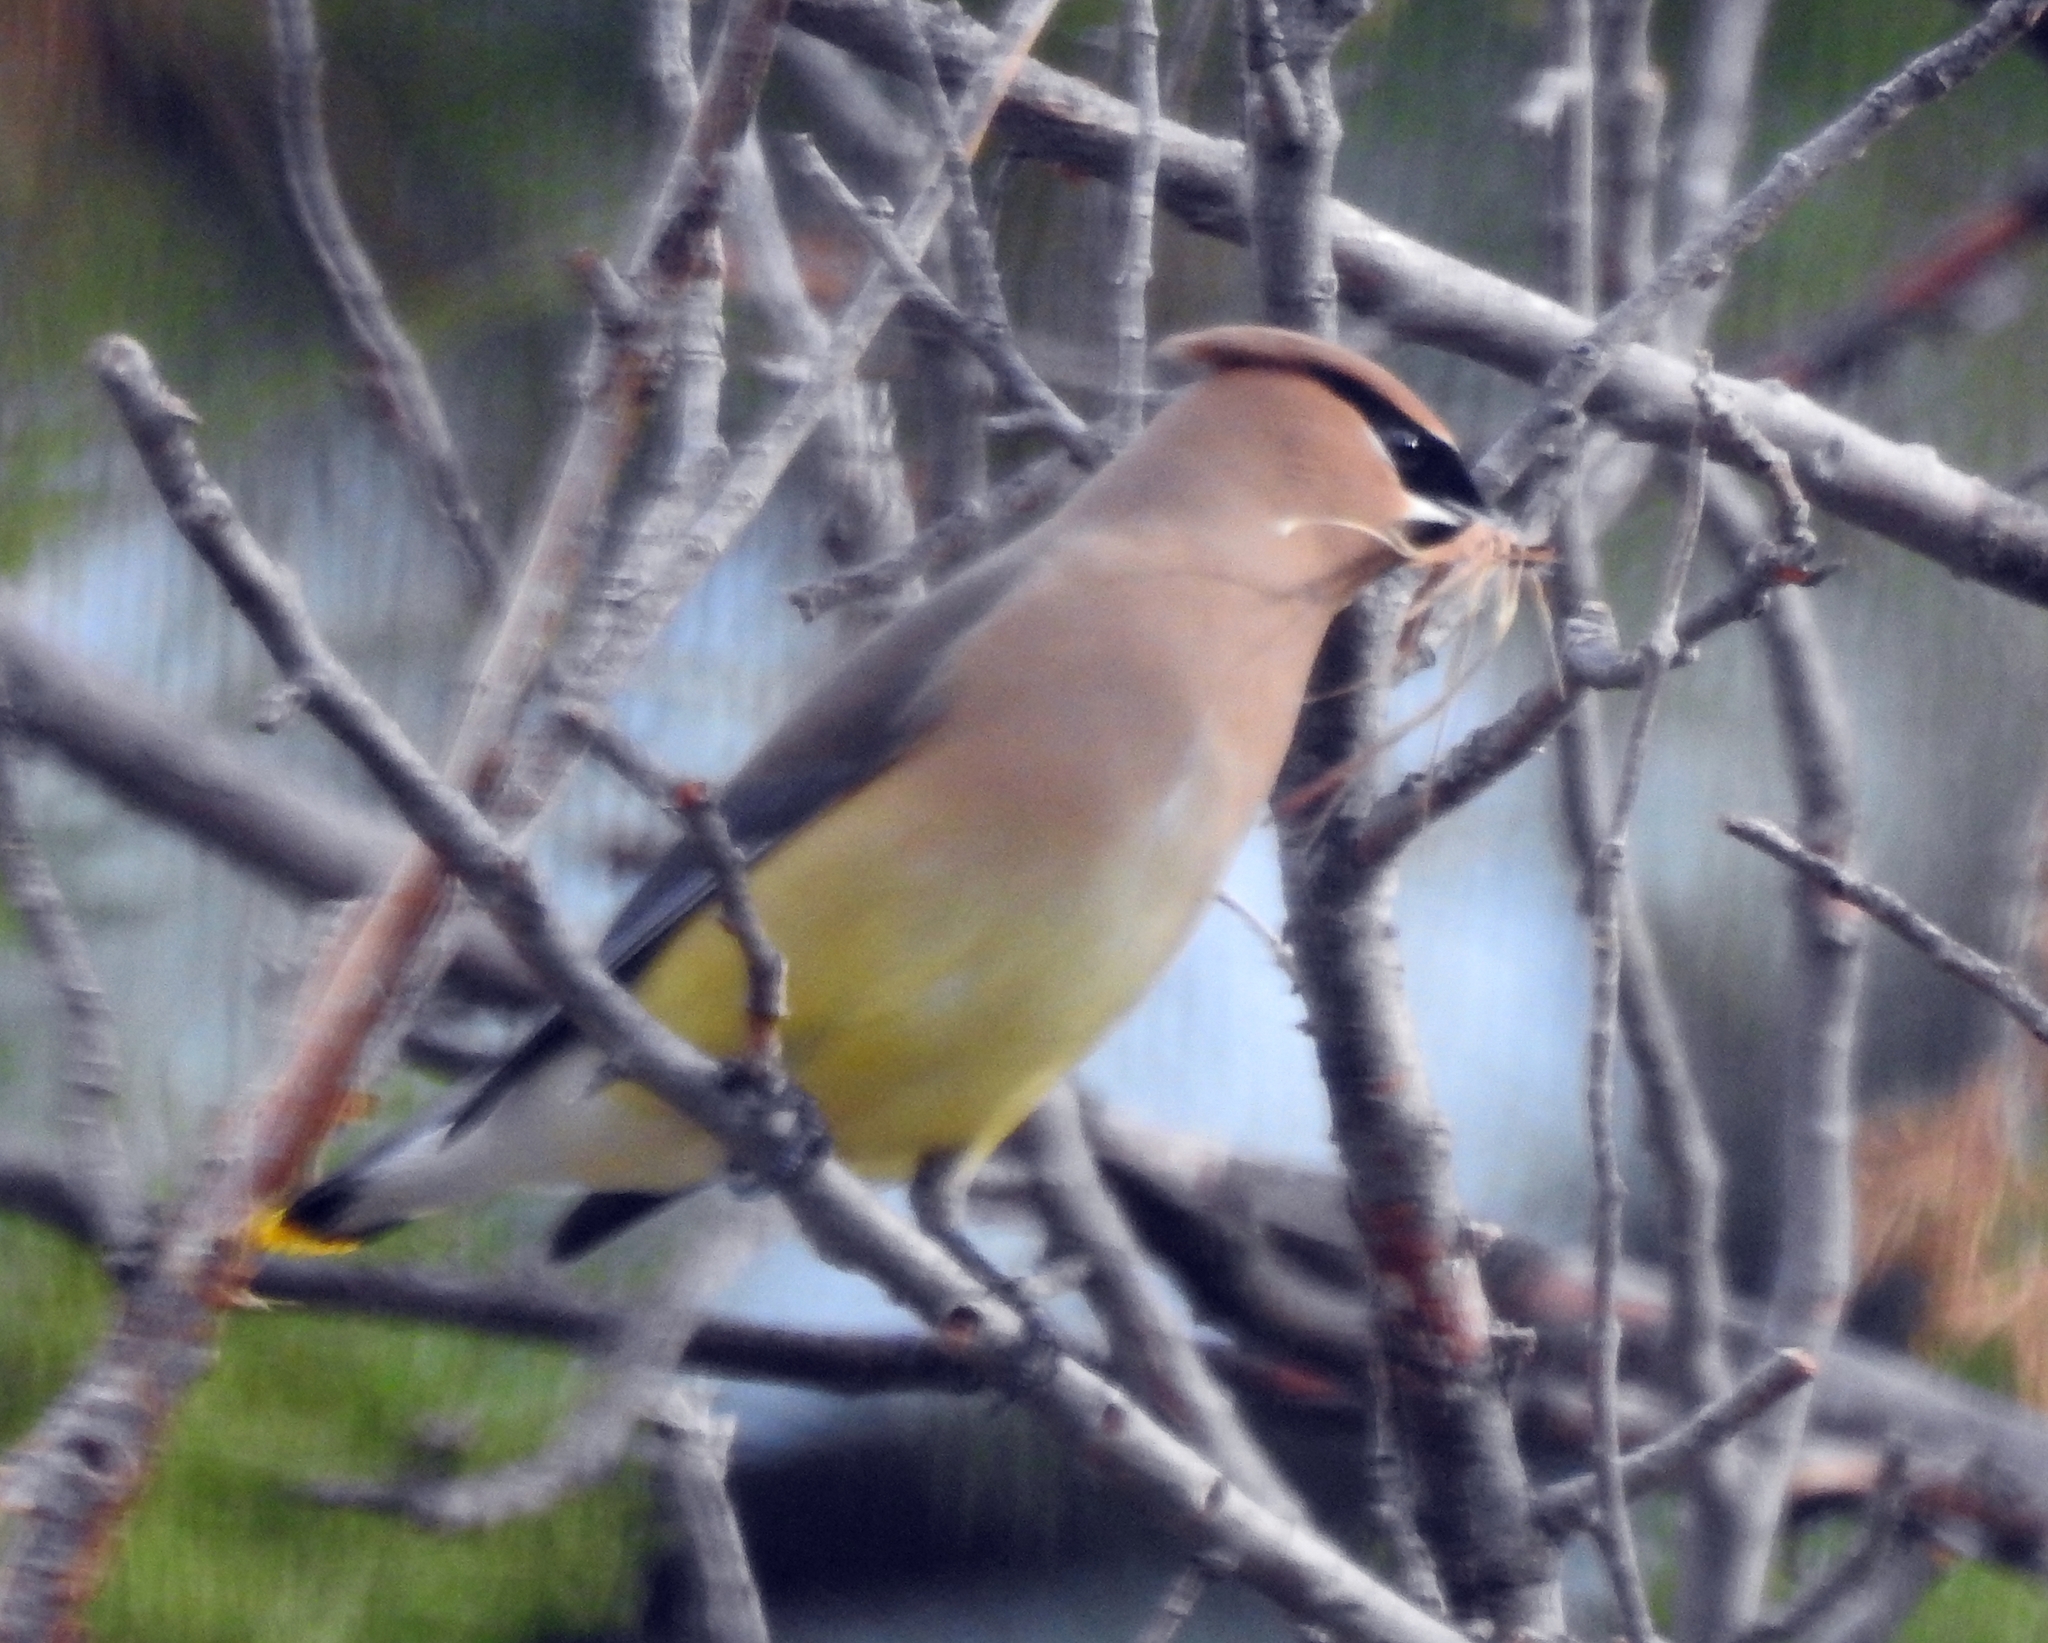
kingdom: Animalia
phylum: Chordata
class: Aves
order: Passeriformes
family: Bombycillidae
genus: Bombycilla
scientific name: Bombycilla cedrorum
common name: Cedar waxwing
